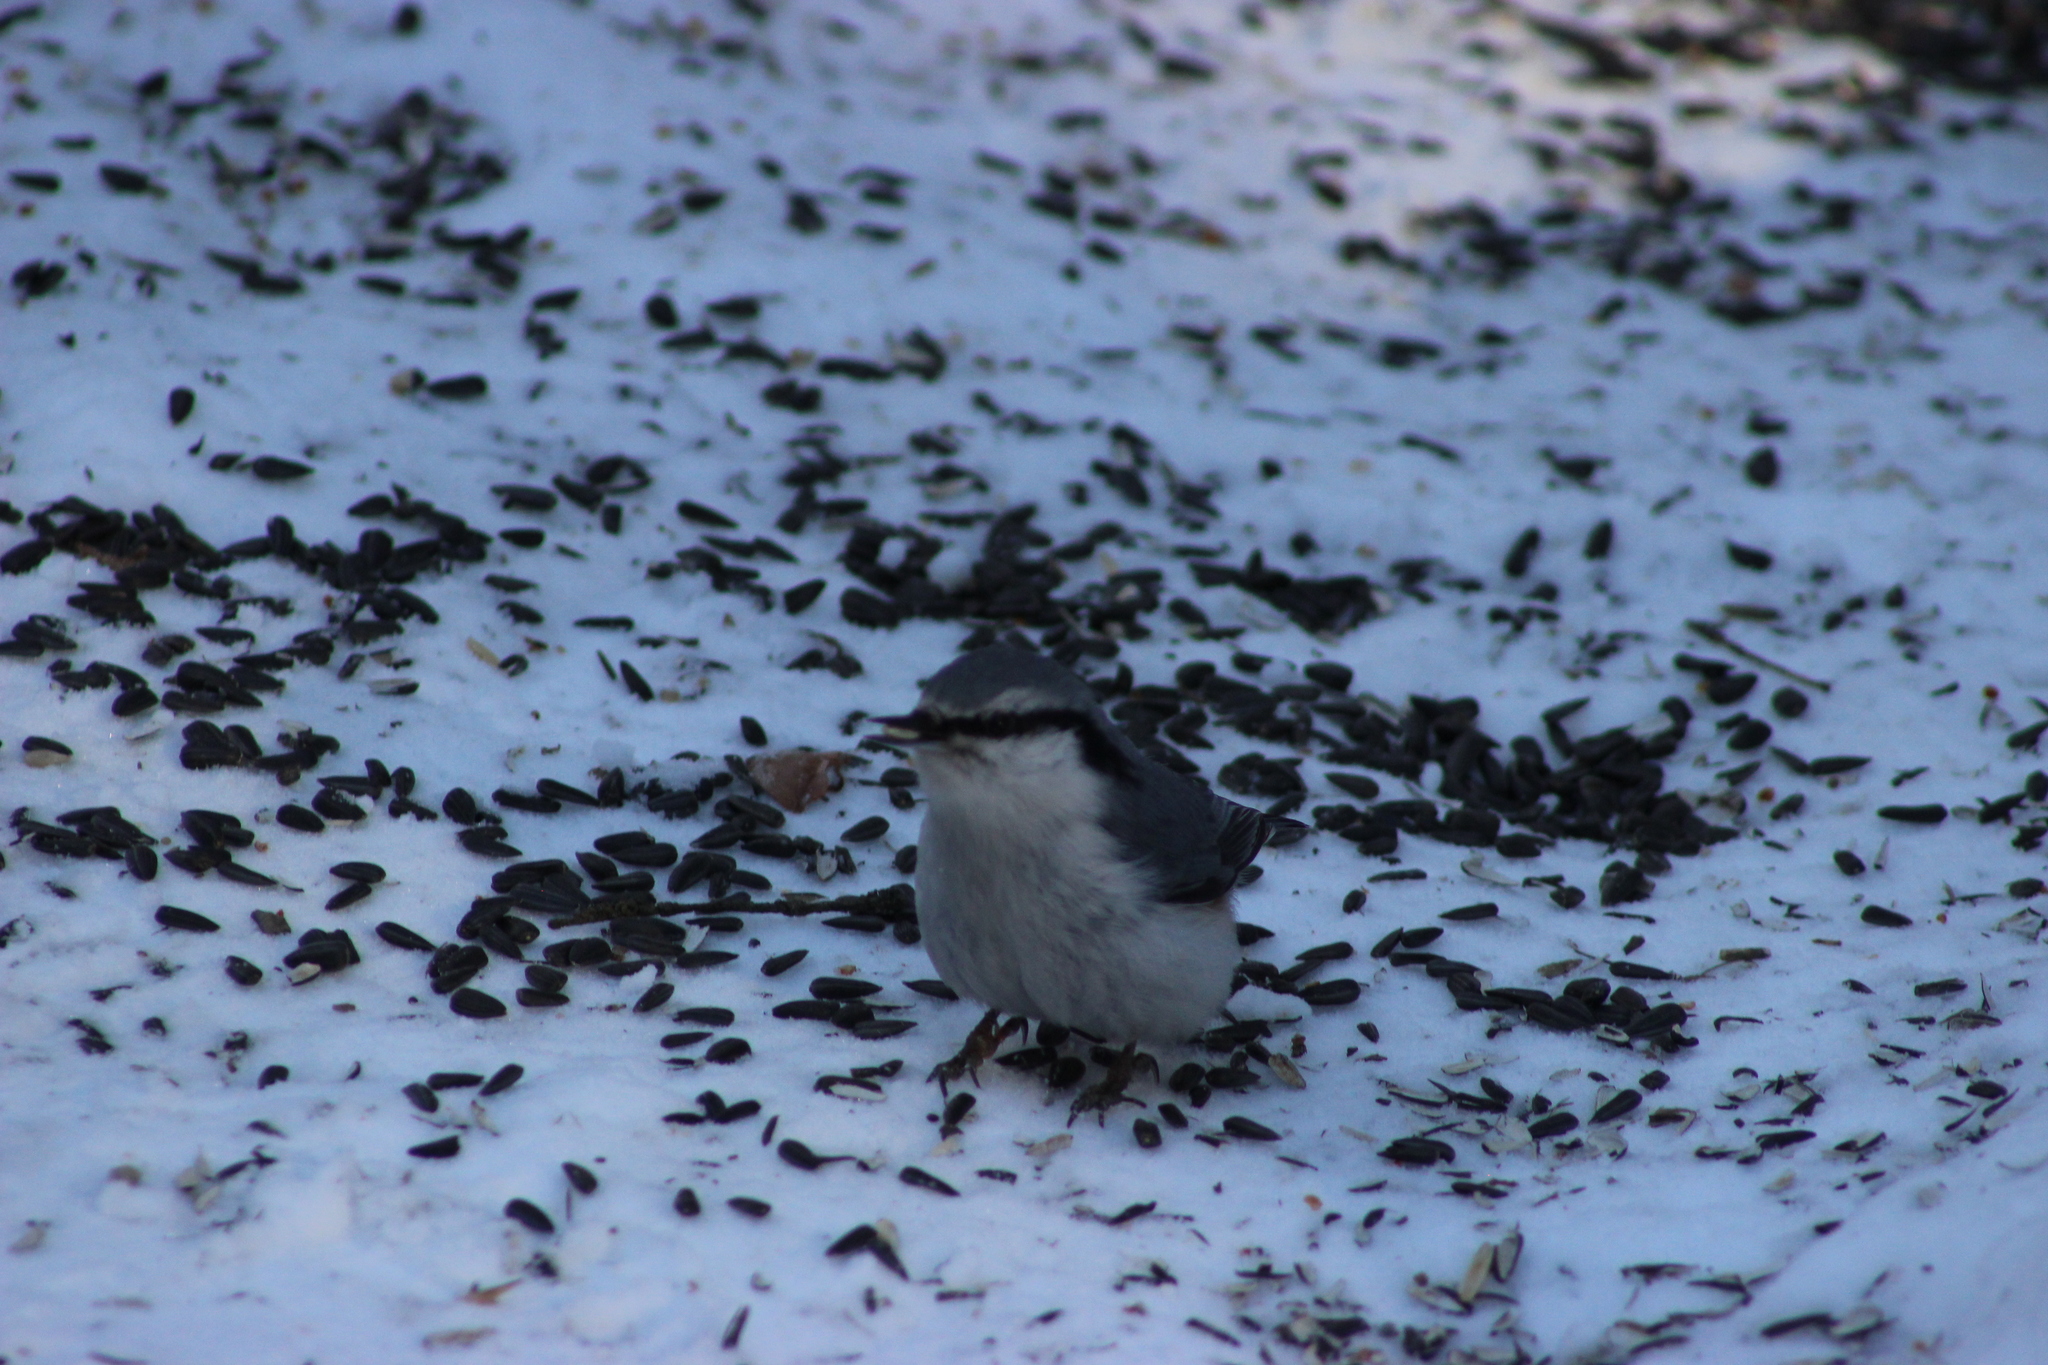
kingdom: Animalia
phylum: Chordata
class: Aves
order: Passeriformes
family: Sittidae
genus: Sitta
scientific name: Sitta europaea
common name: Eurasian nuthatch
